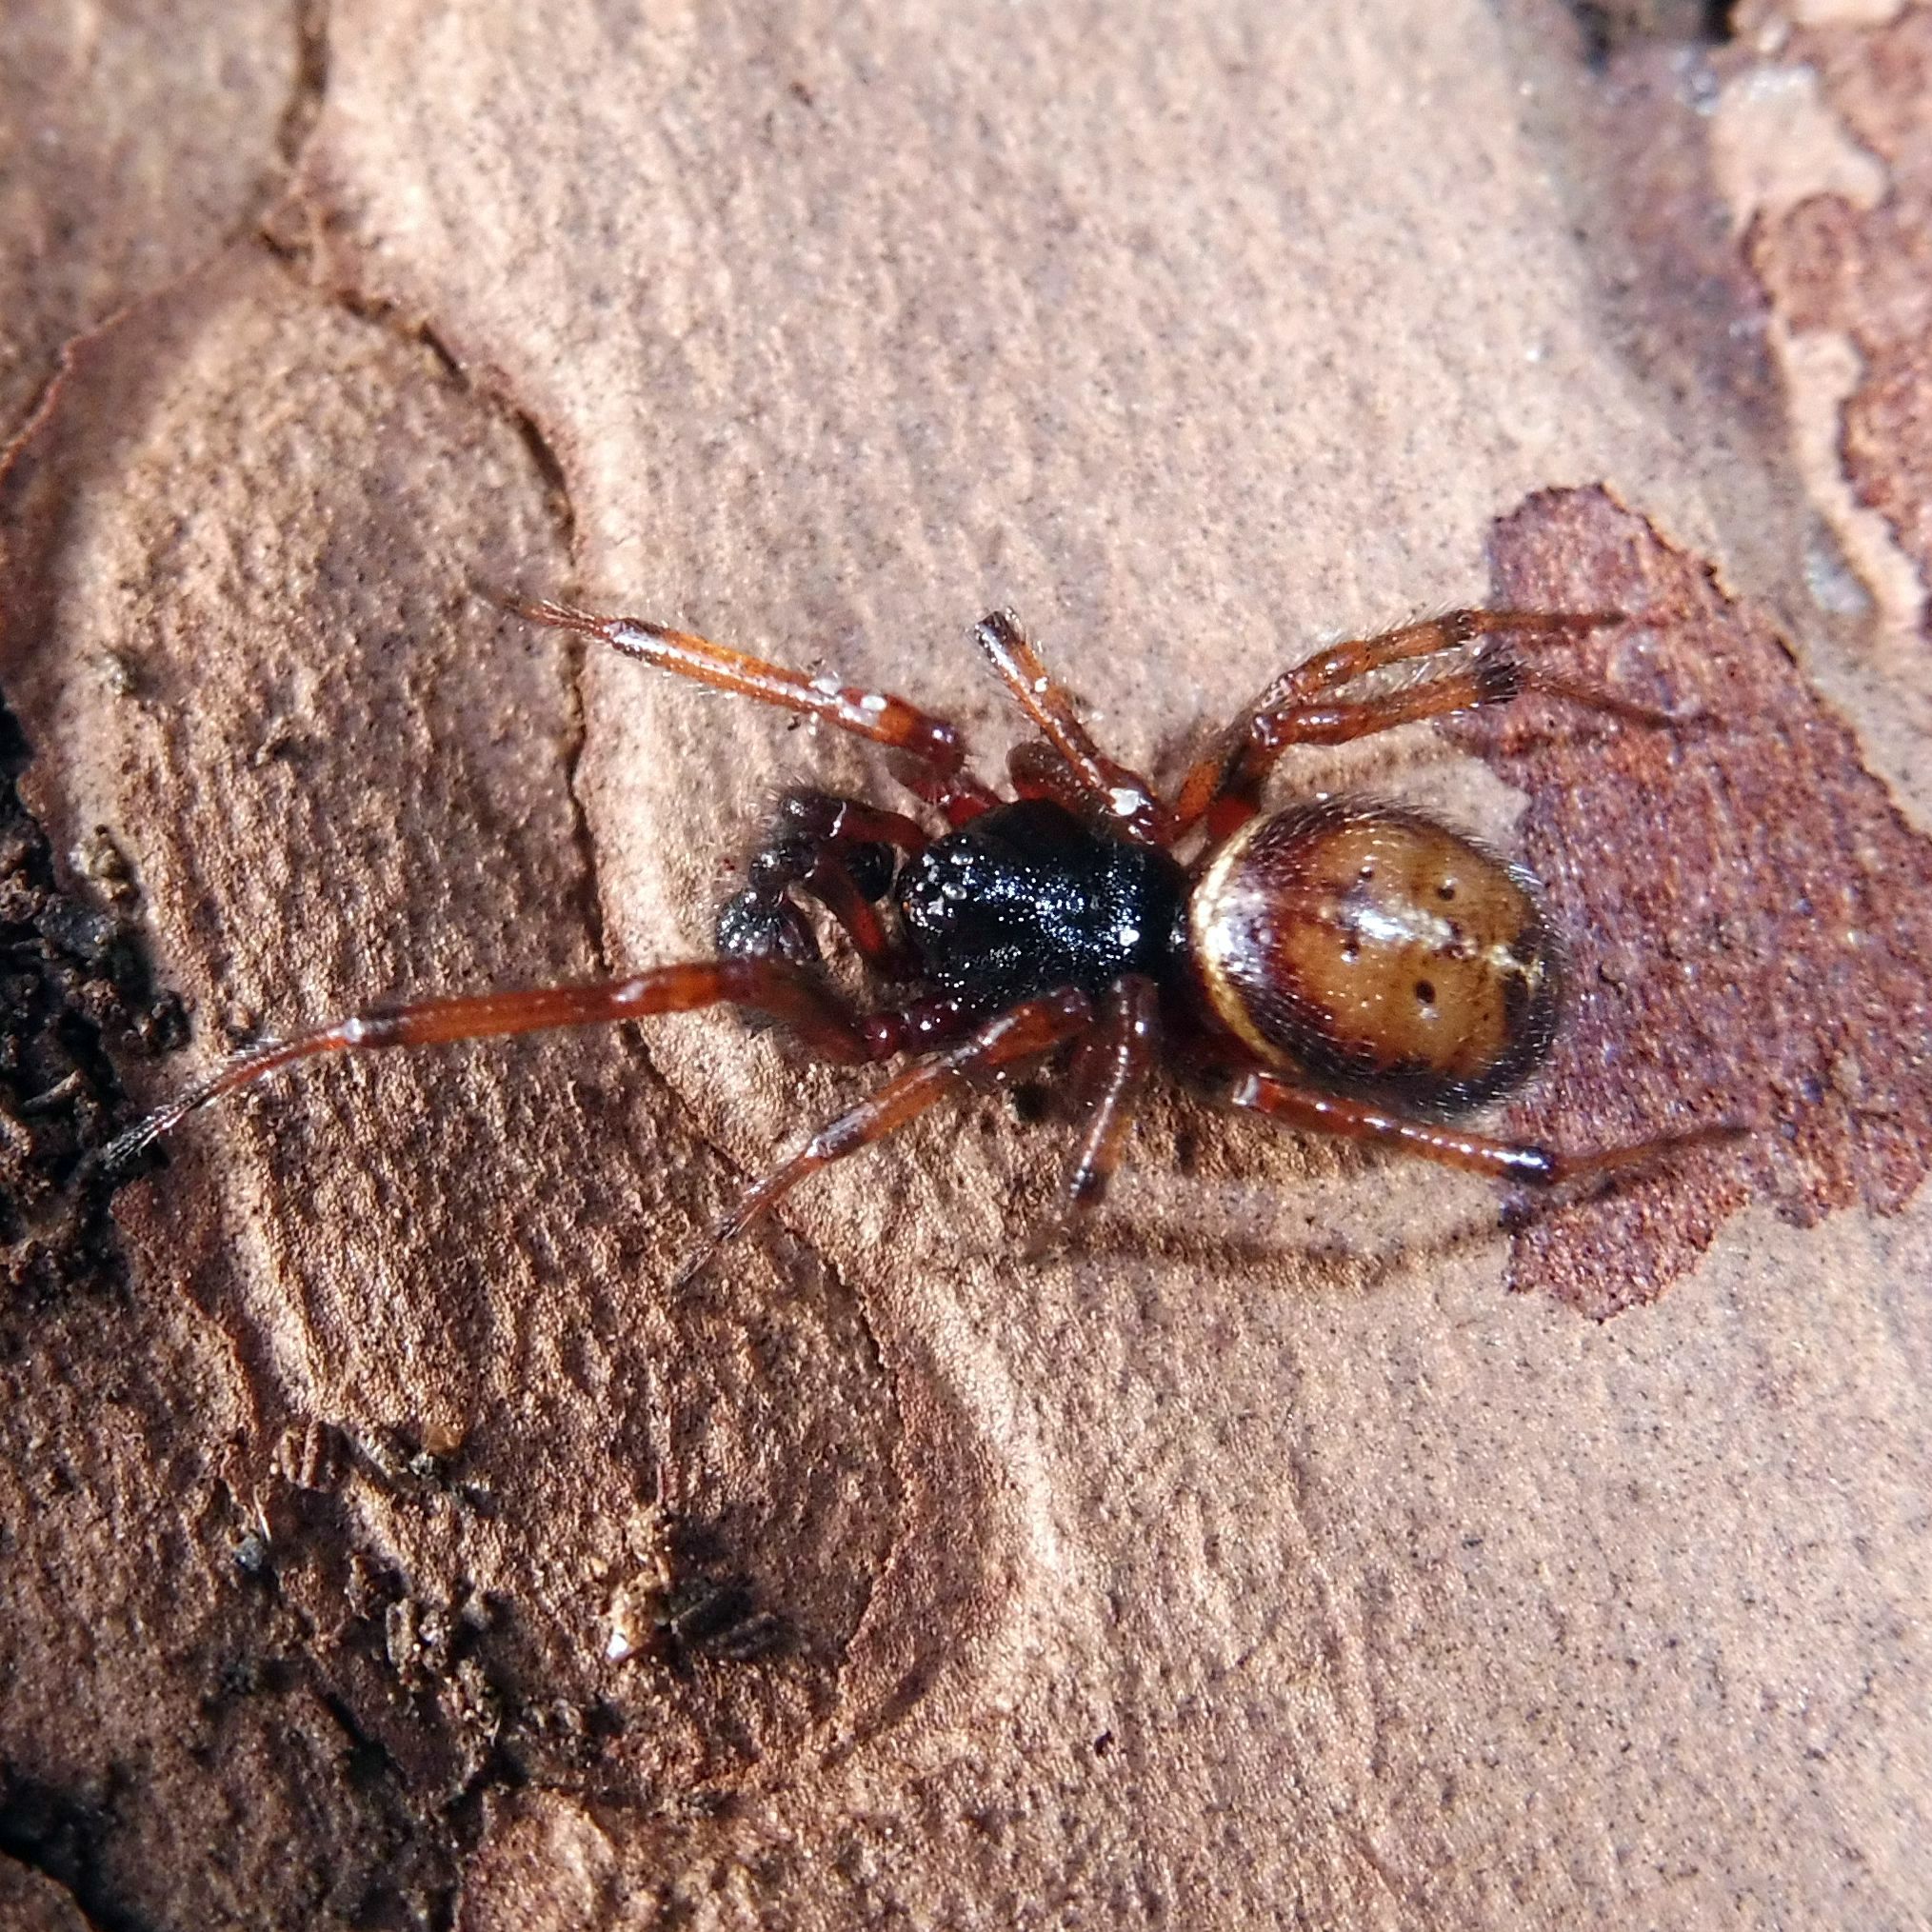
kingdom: Animalia
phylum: Arthropoda
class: Arachnida
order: Araneae
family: Theridiidae
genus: Steatoda
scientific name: Steatoda bipunctata
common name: False widow
